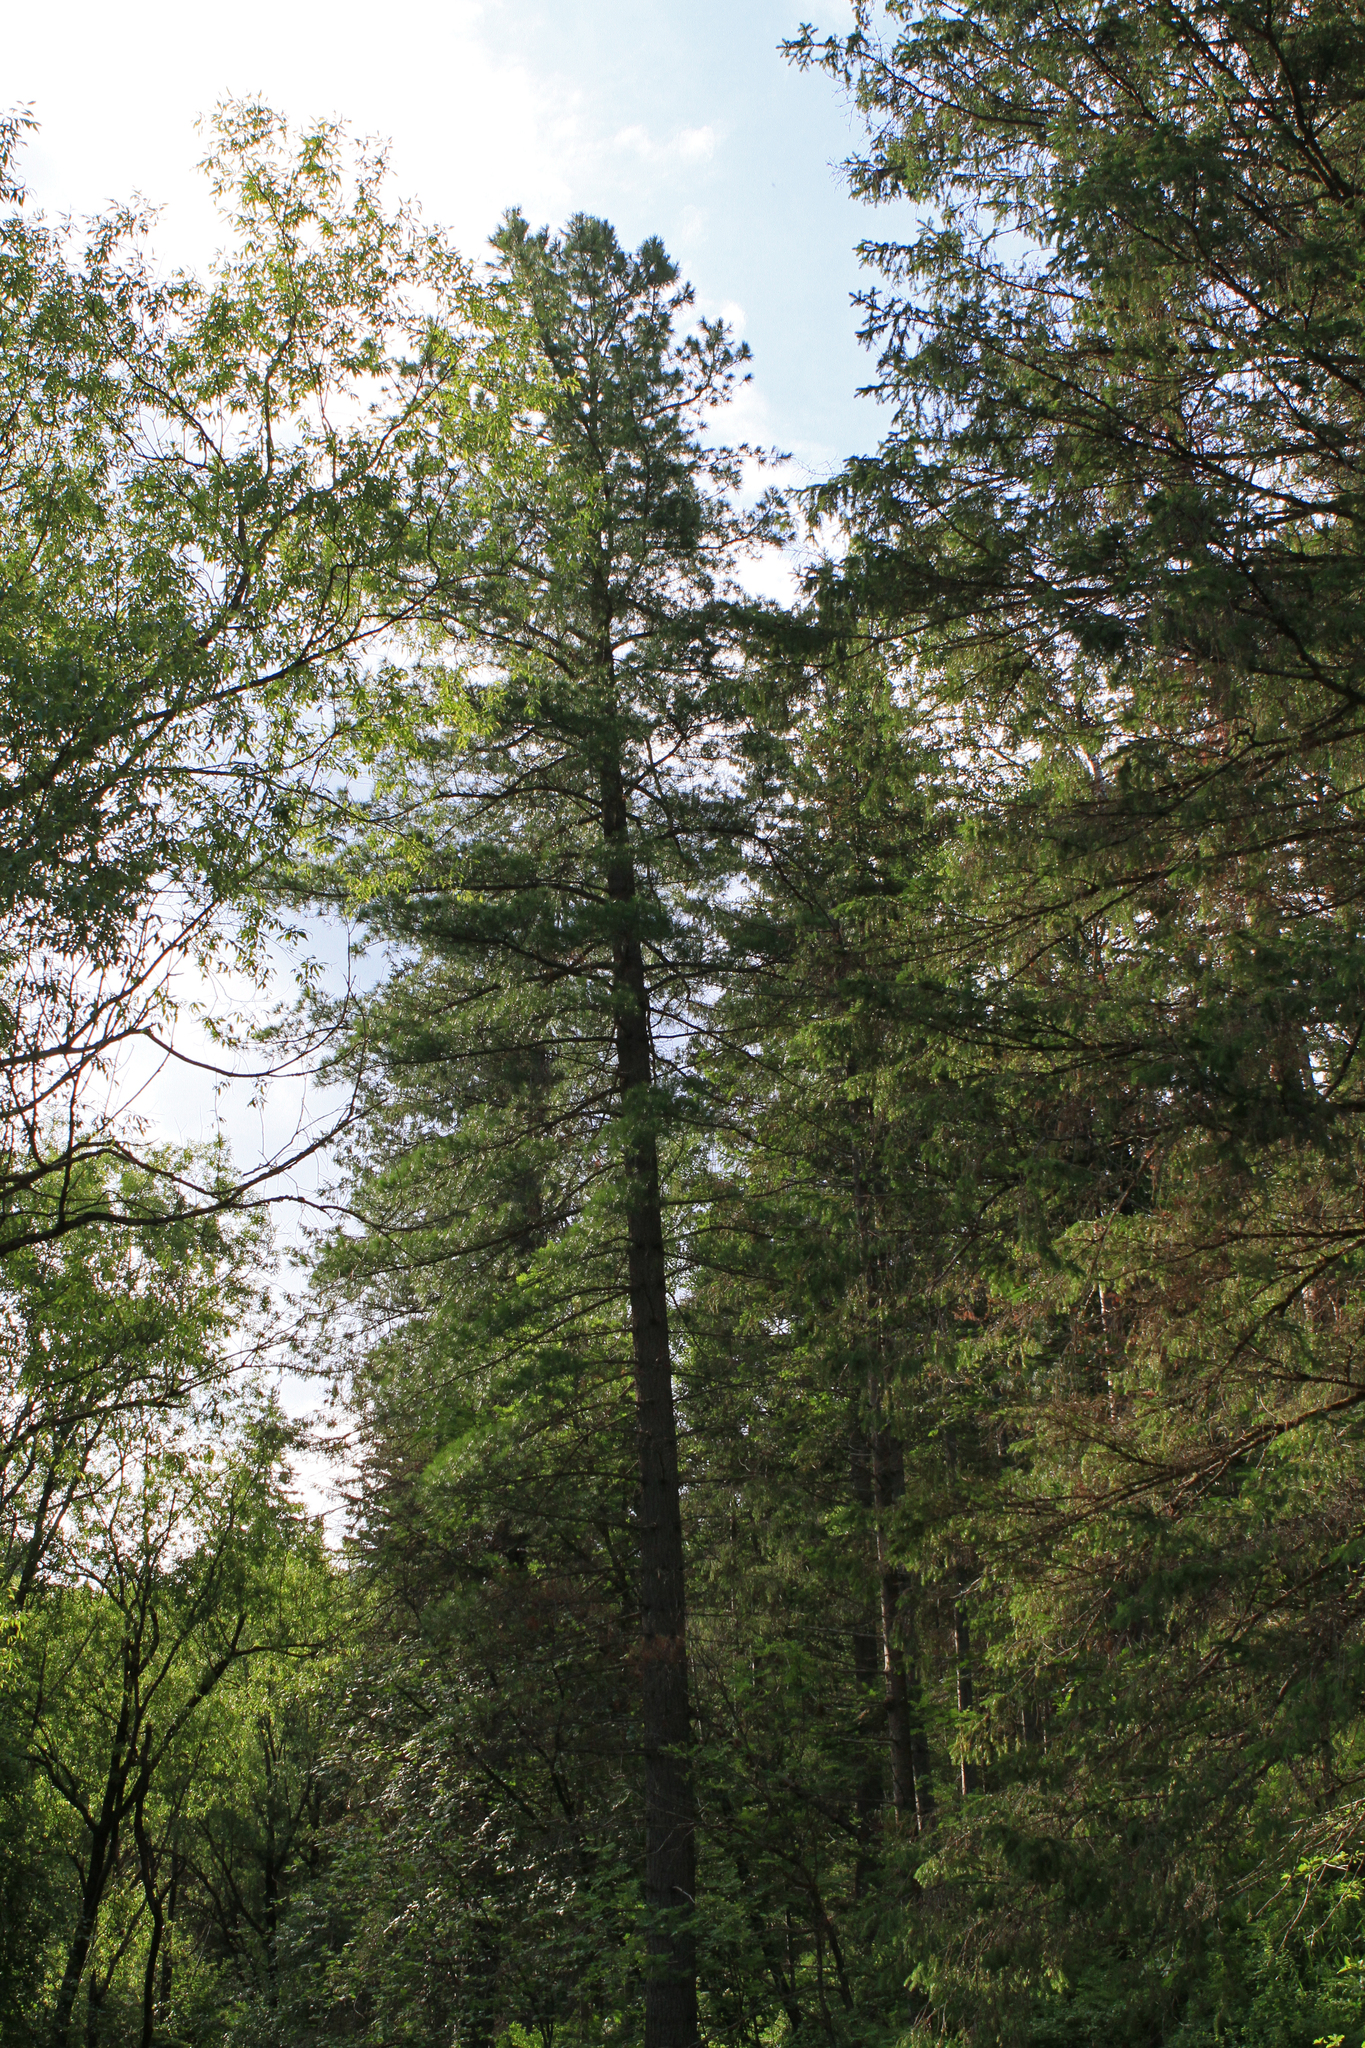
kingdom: Plantae
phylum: Tracheophyta
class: Pinopsida
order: Pinales
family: Pinaceae
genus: Pinus
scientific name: Pinus sibirica
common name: Siberian pine
